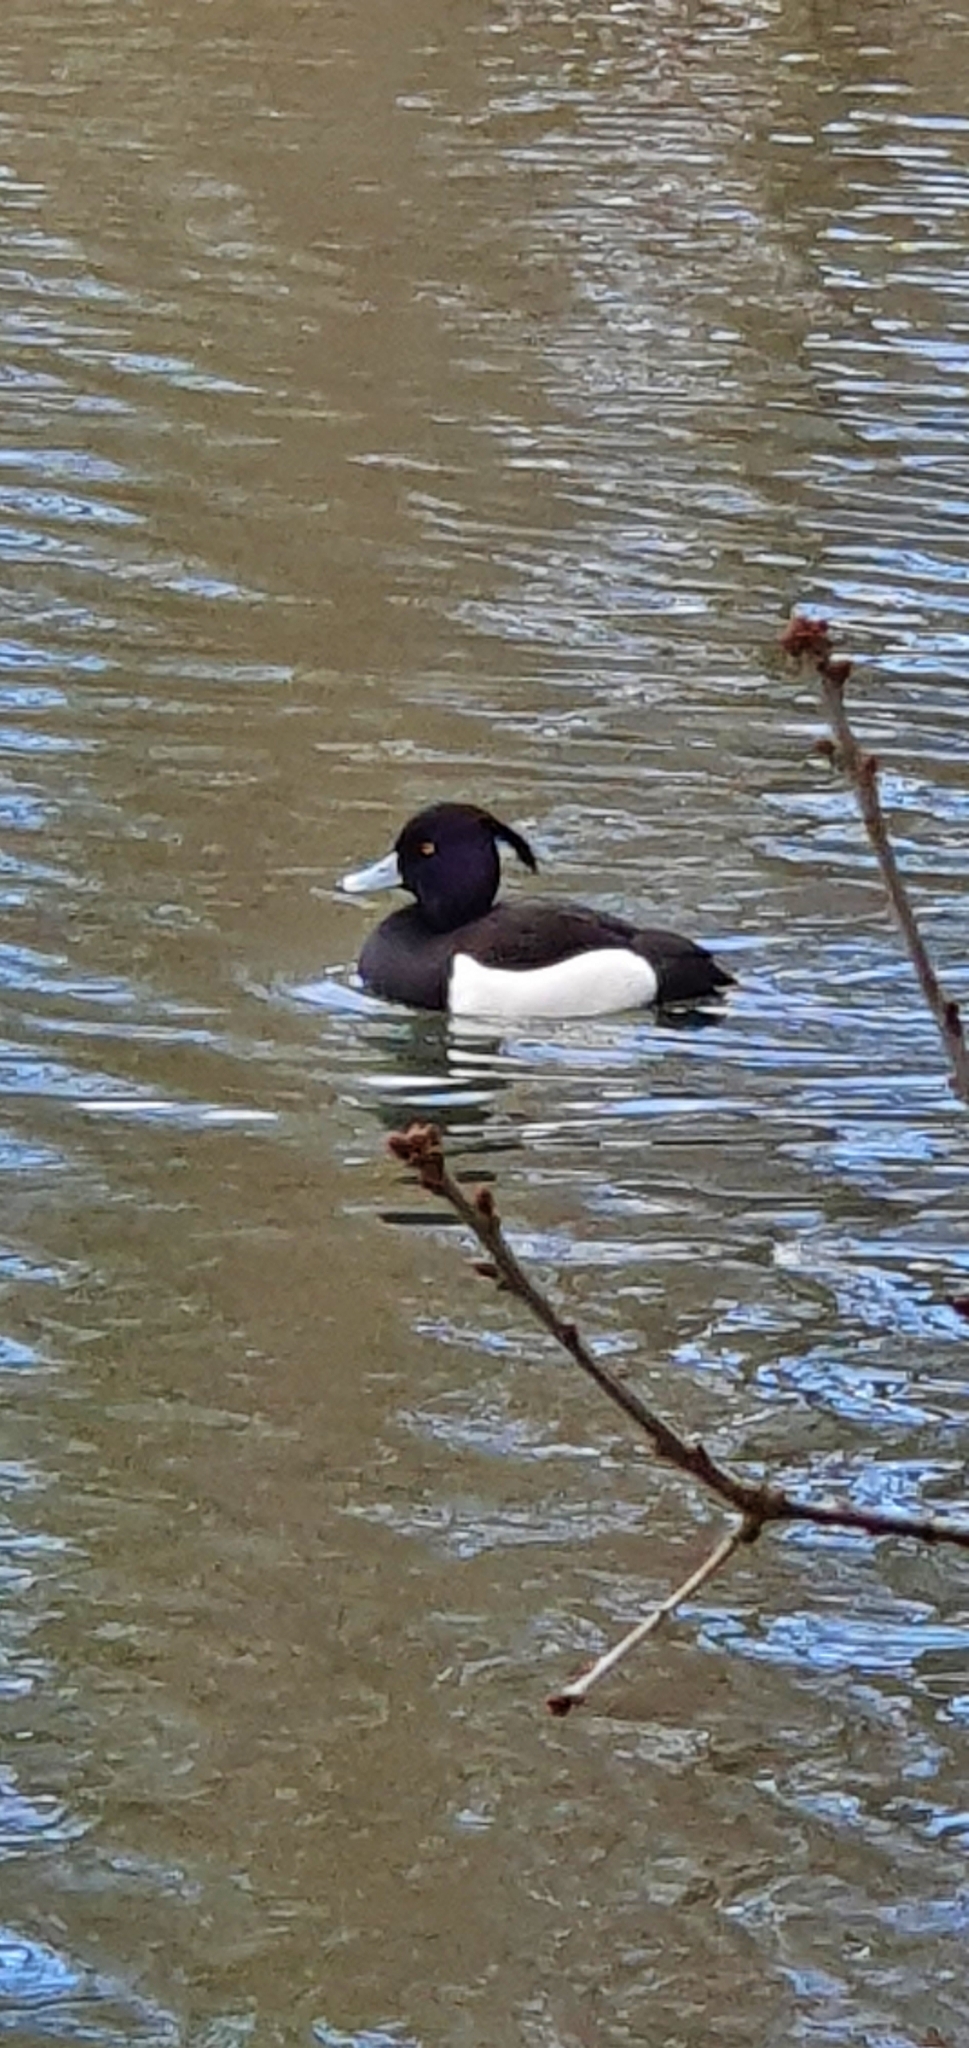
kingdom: Animalia
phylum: Chordata
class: Aves
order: Anseriformes
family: Anatidae
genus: Aythya
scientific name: Aythya fuligula
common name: Tufted duck
